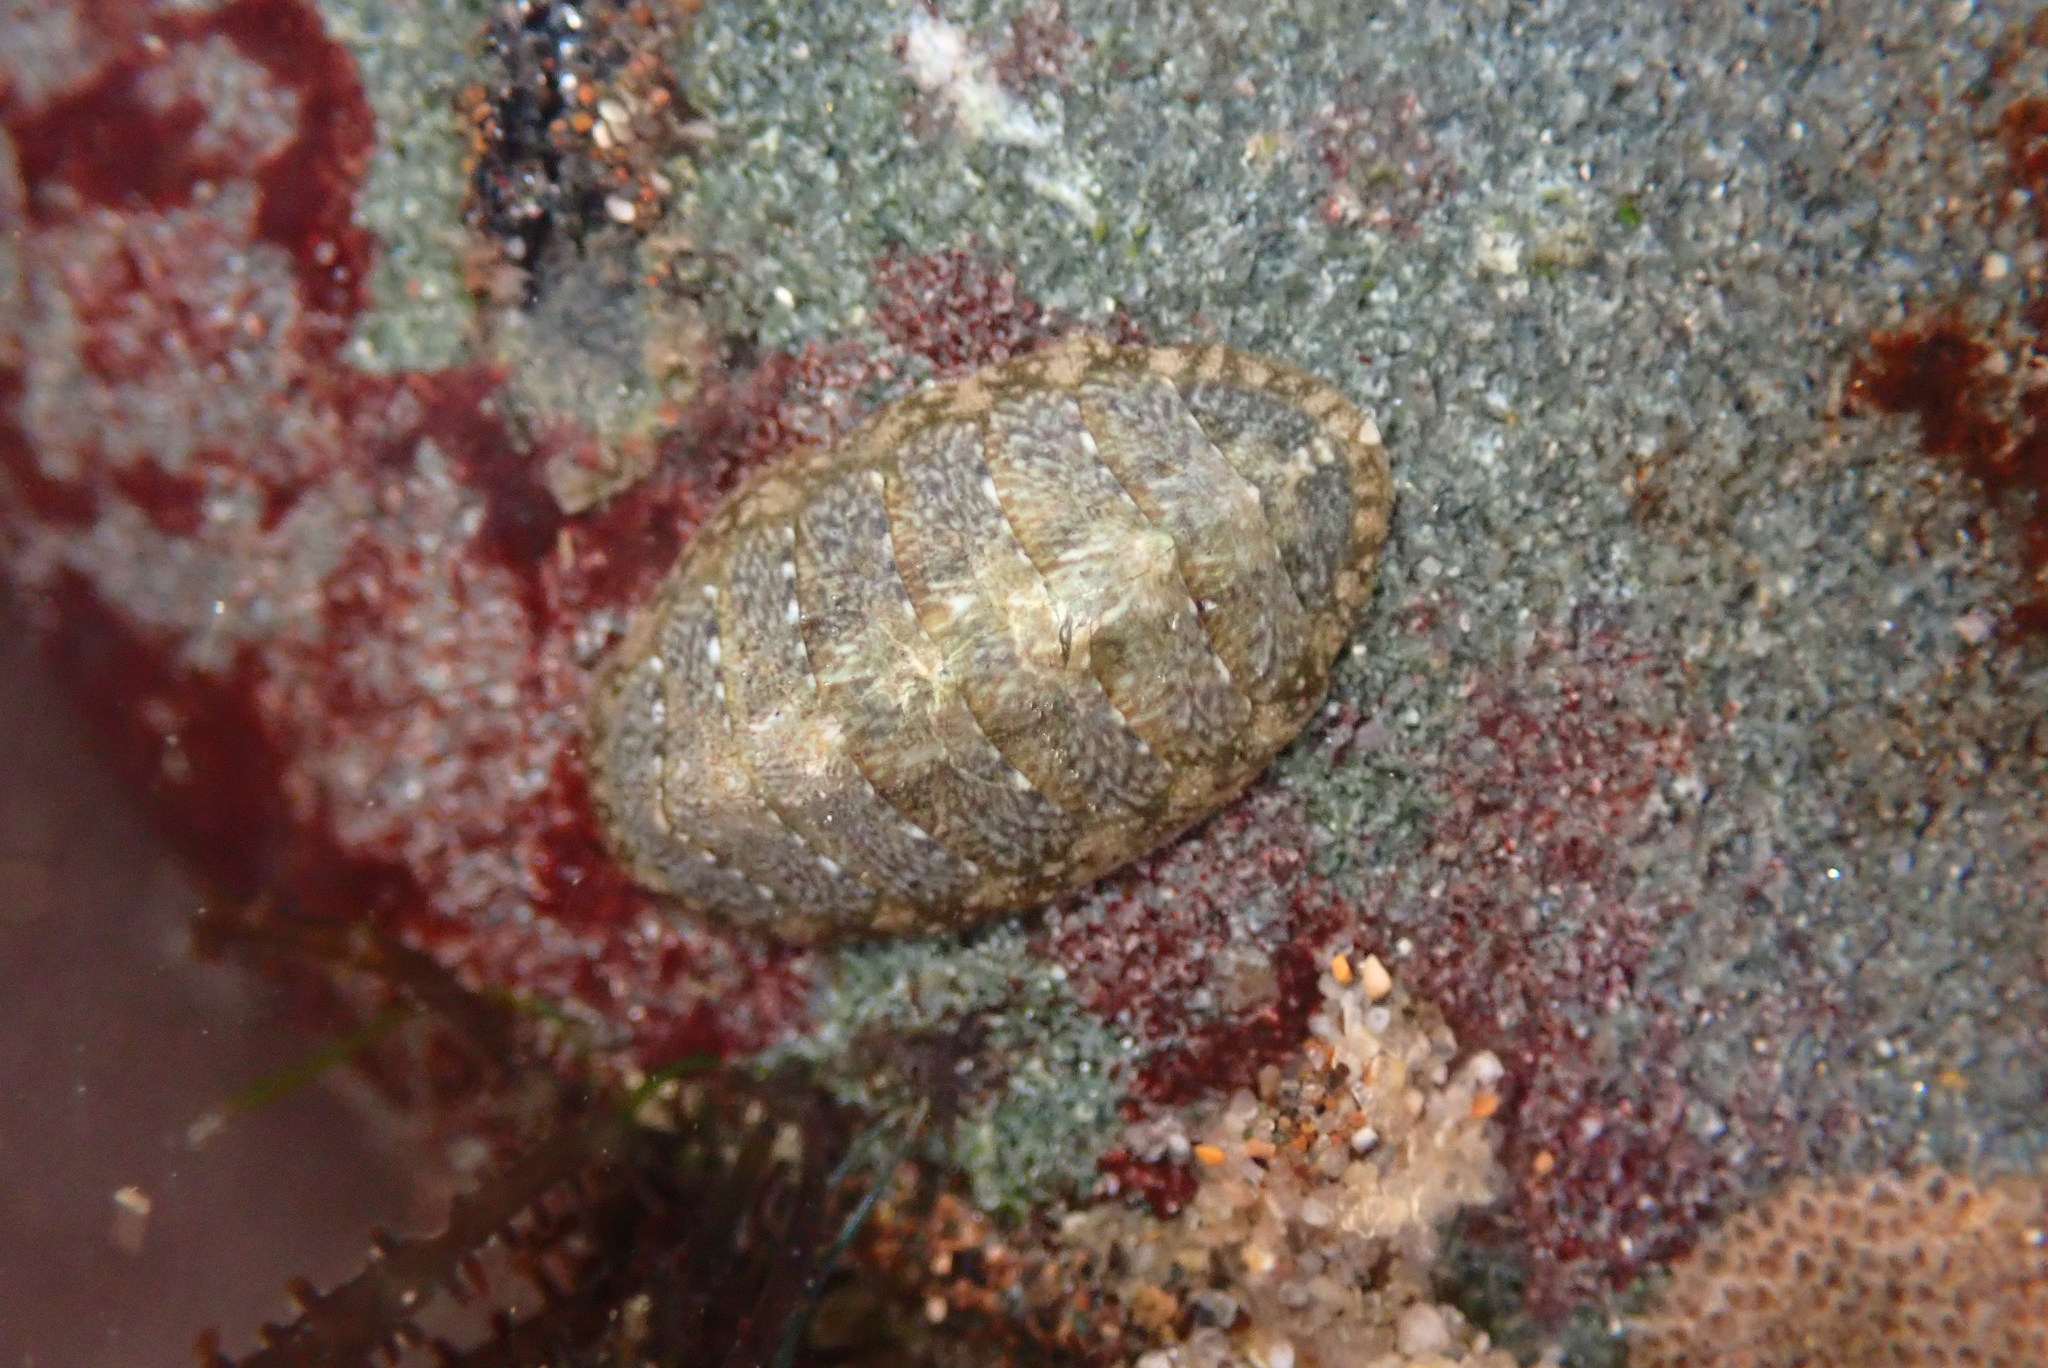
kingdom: Animalia
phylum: Mollusca
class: Polyplacophora
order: Chitonida
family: Tonicellidae
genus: Cyanoplax
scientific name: Cyanoplax keepiana
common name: Keep's chiton
